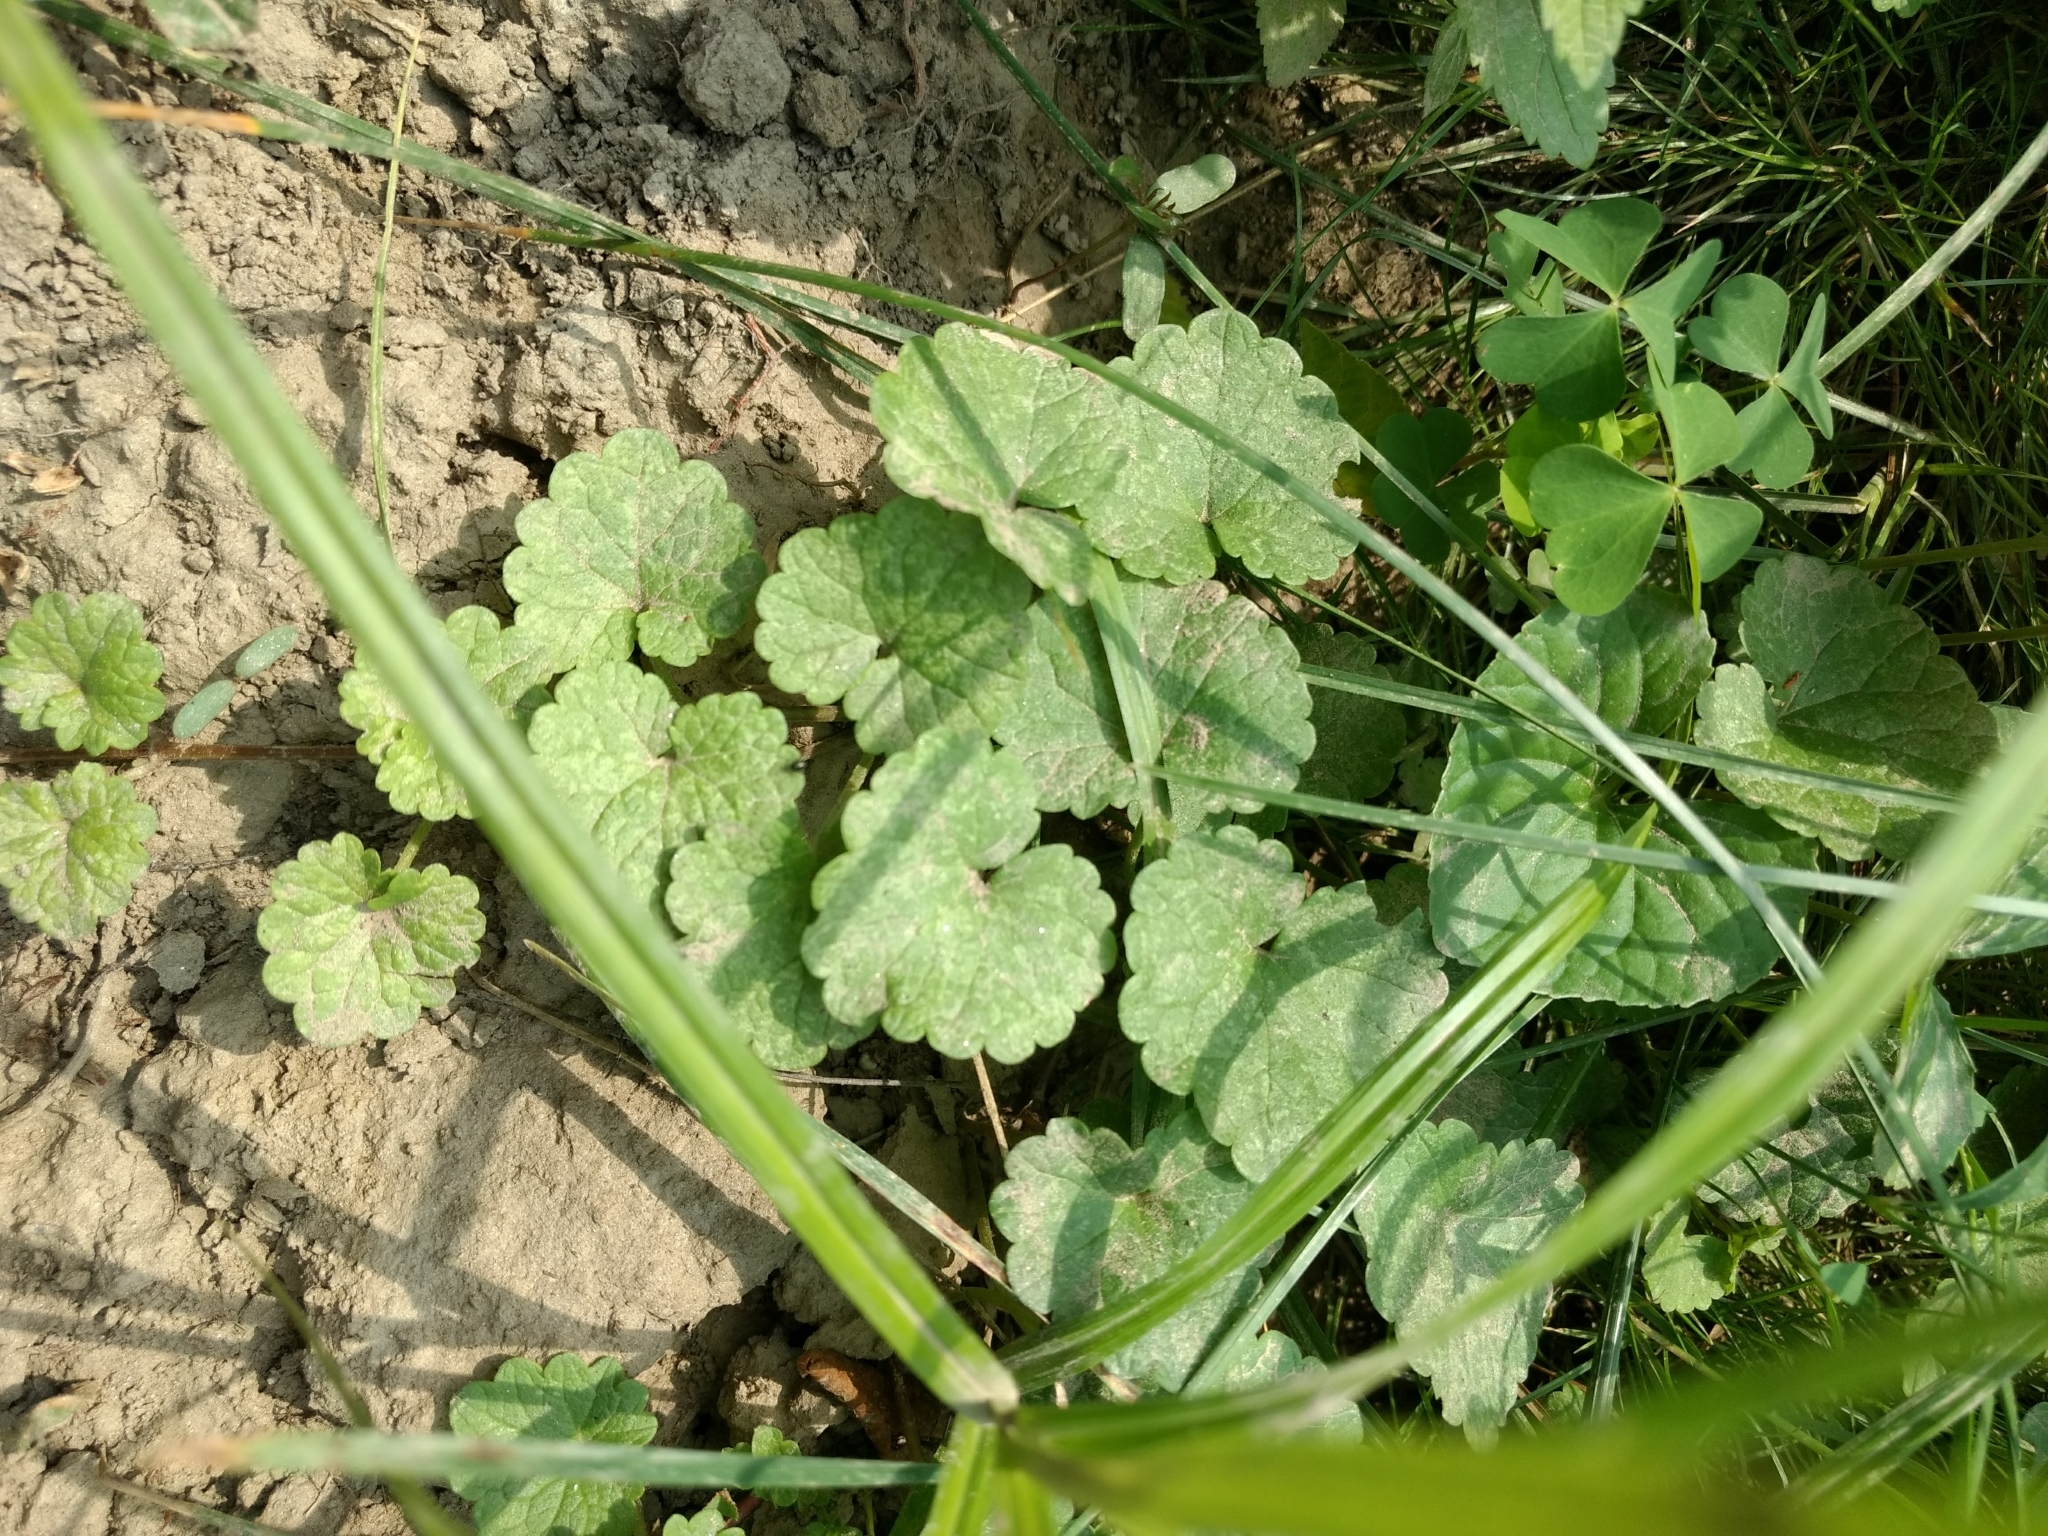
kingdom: Plantae
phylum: Tracheophyta
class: Magnoliopsida
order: Lamiales
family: Lamiaceae
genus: Glechoma
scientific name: Glechoma hederacea
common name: Ground ivy
